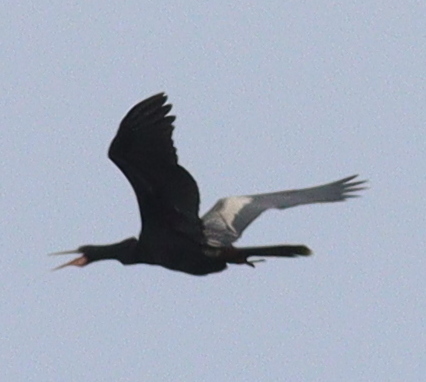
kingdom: Animalia
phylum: Chordata
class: Aves
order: Suliformes
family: Anhingidae
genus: Anhinga
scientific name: Anhinga anhinga
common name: Anhinga
